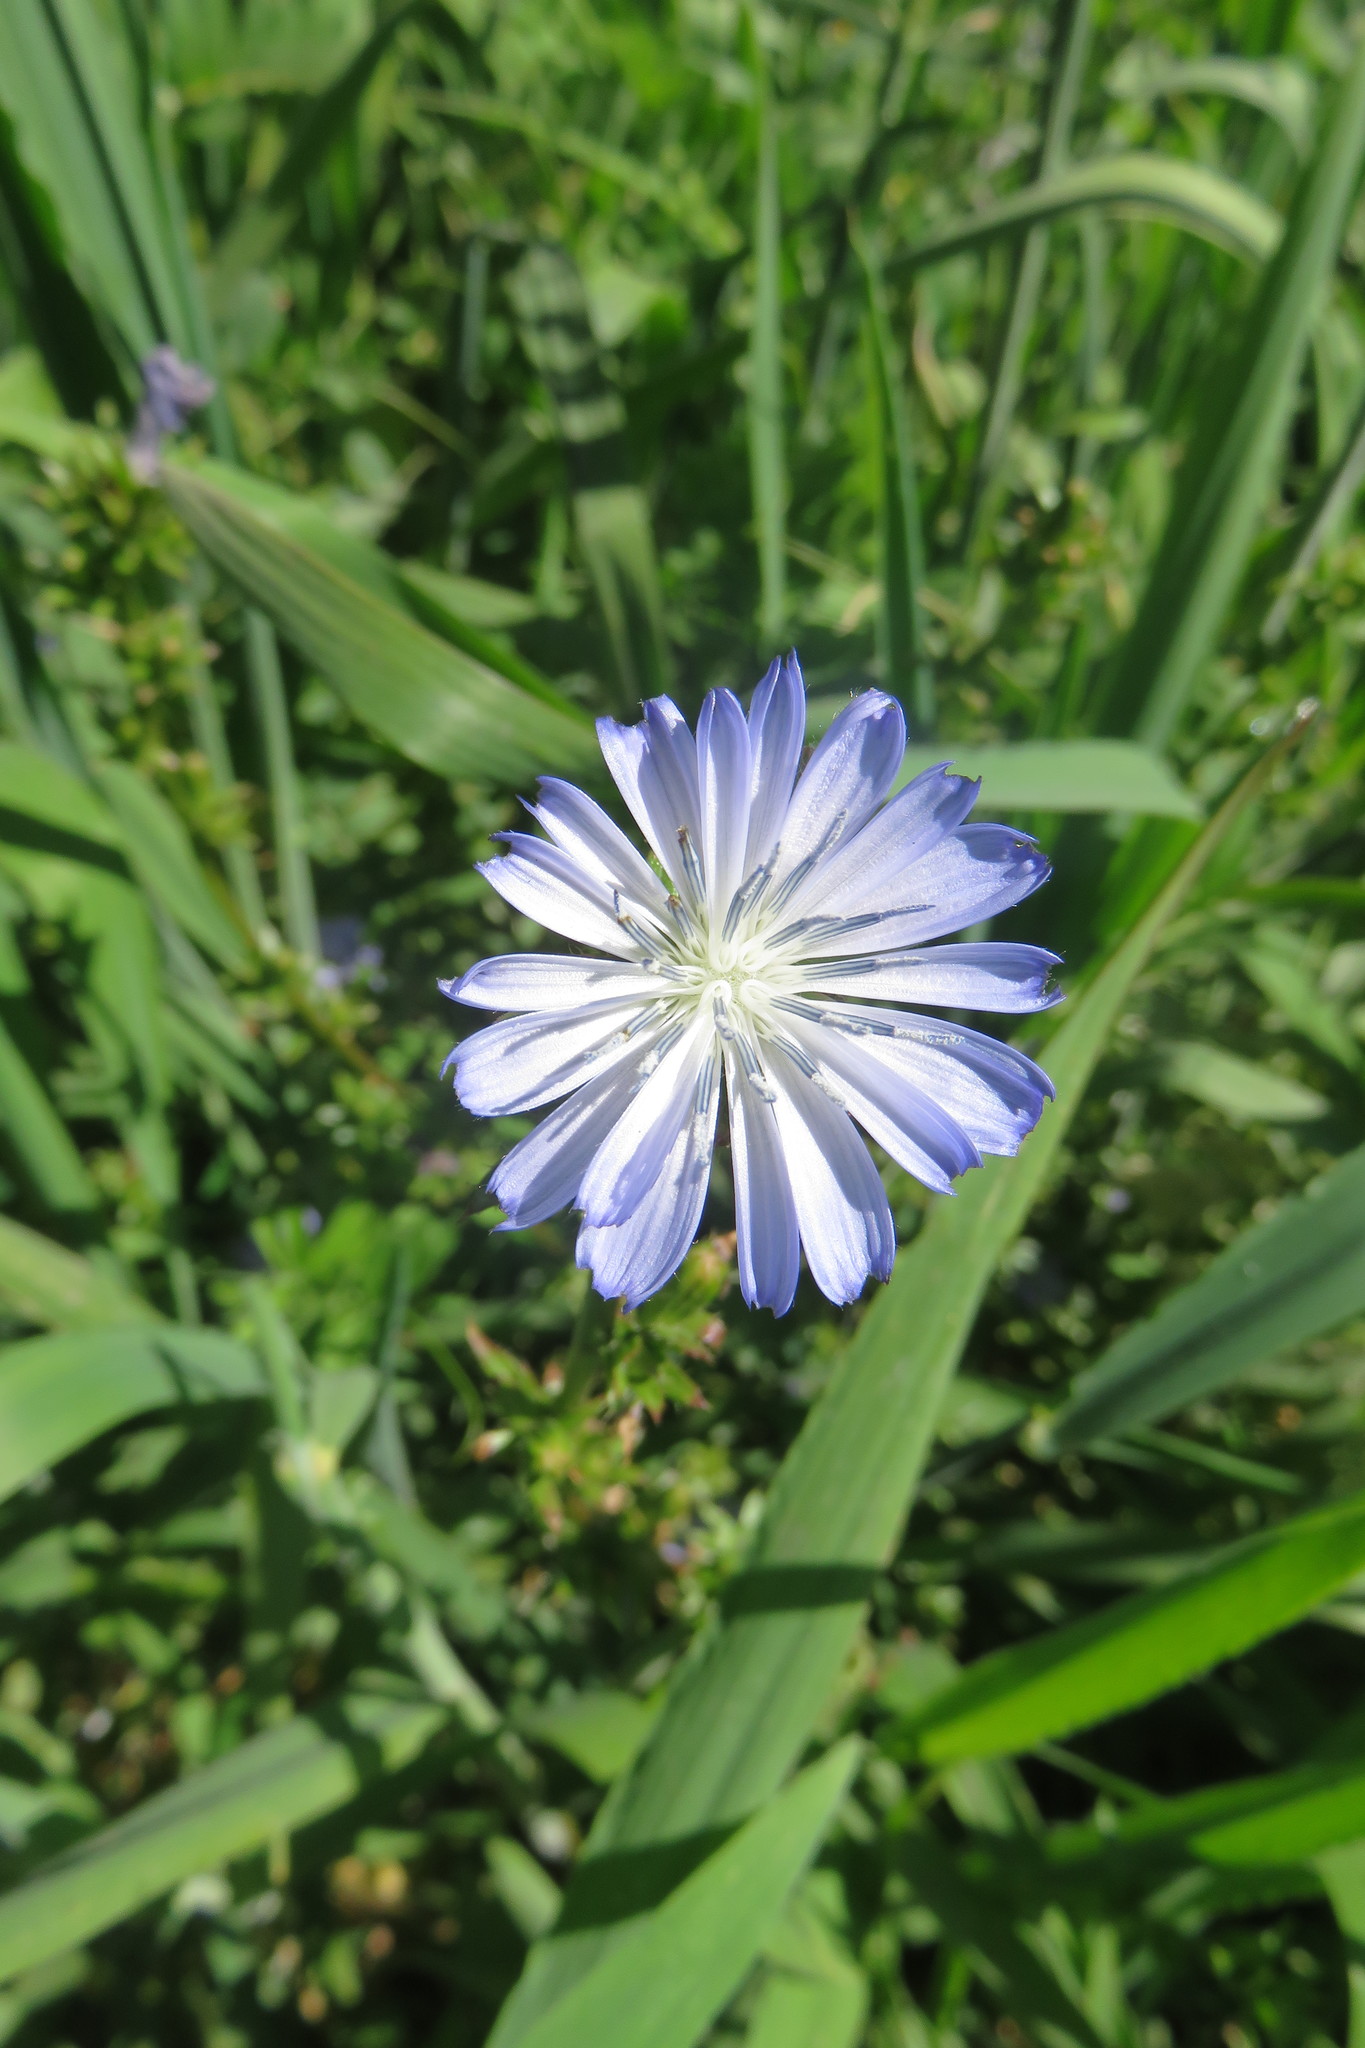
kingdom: Plantae
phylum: Tracheophyta
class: Magnoliopsida
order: Asterales
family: Asteraceae
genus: Cichorium
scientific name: Cichorium intybus
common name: Chicory
